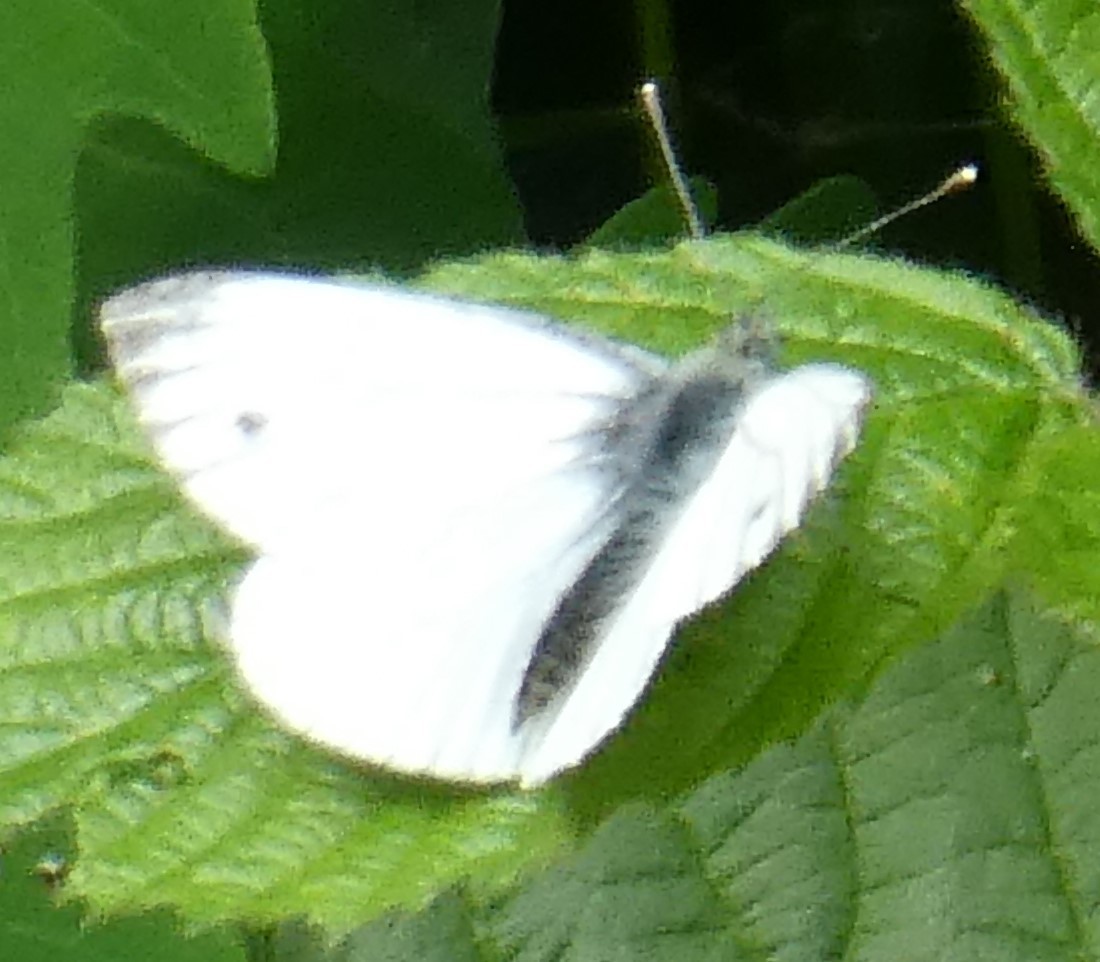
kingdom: Animalia
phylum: Arthropoda
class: Insecta
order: Lepidoptera
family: Pieridae
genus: Pieris
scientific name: Pieris napi
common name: Green-veined white
